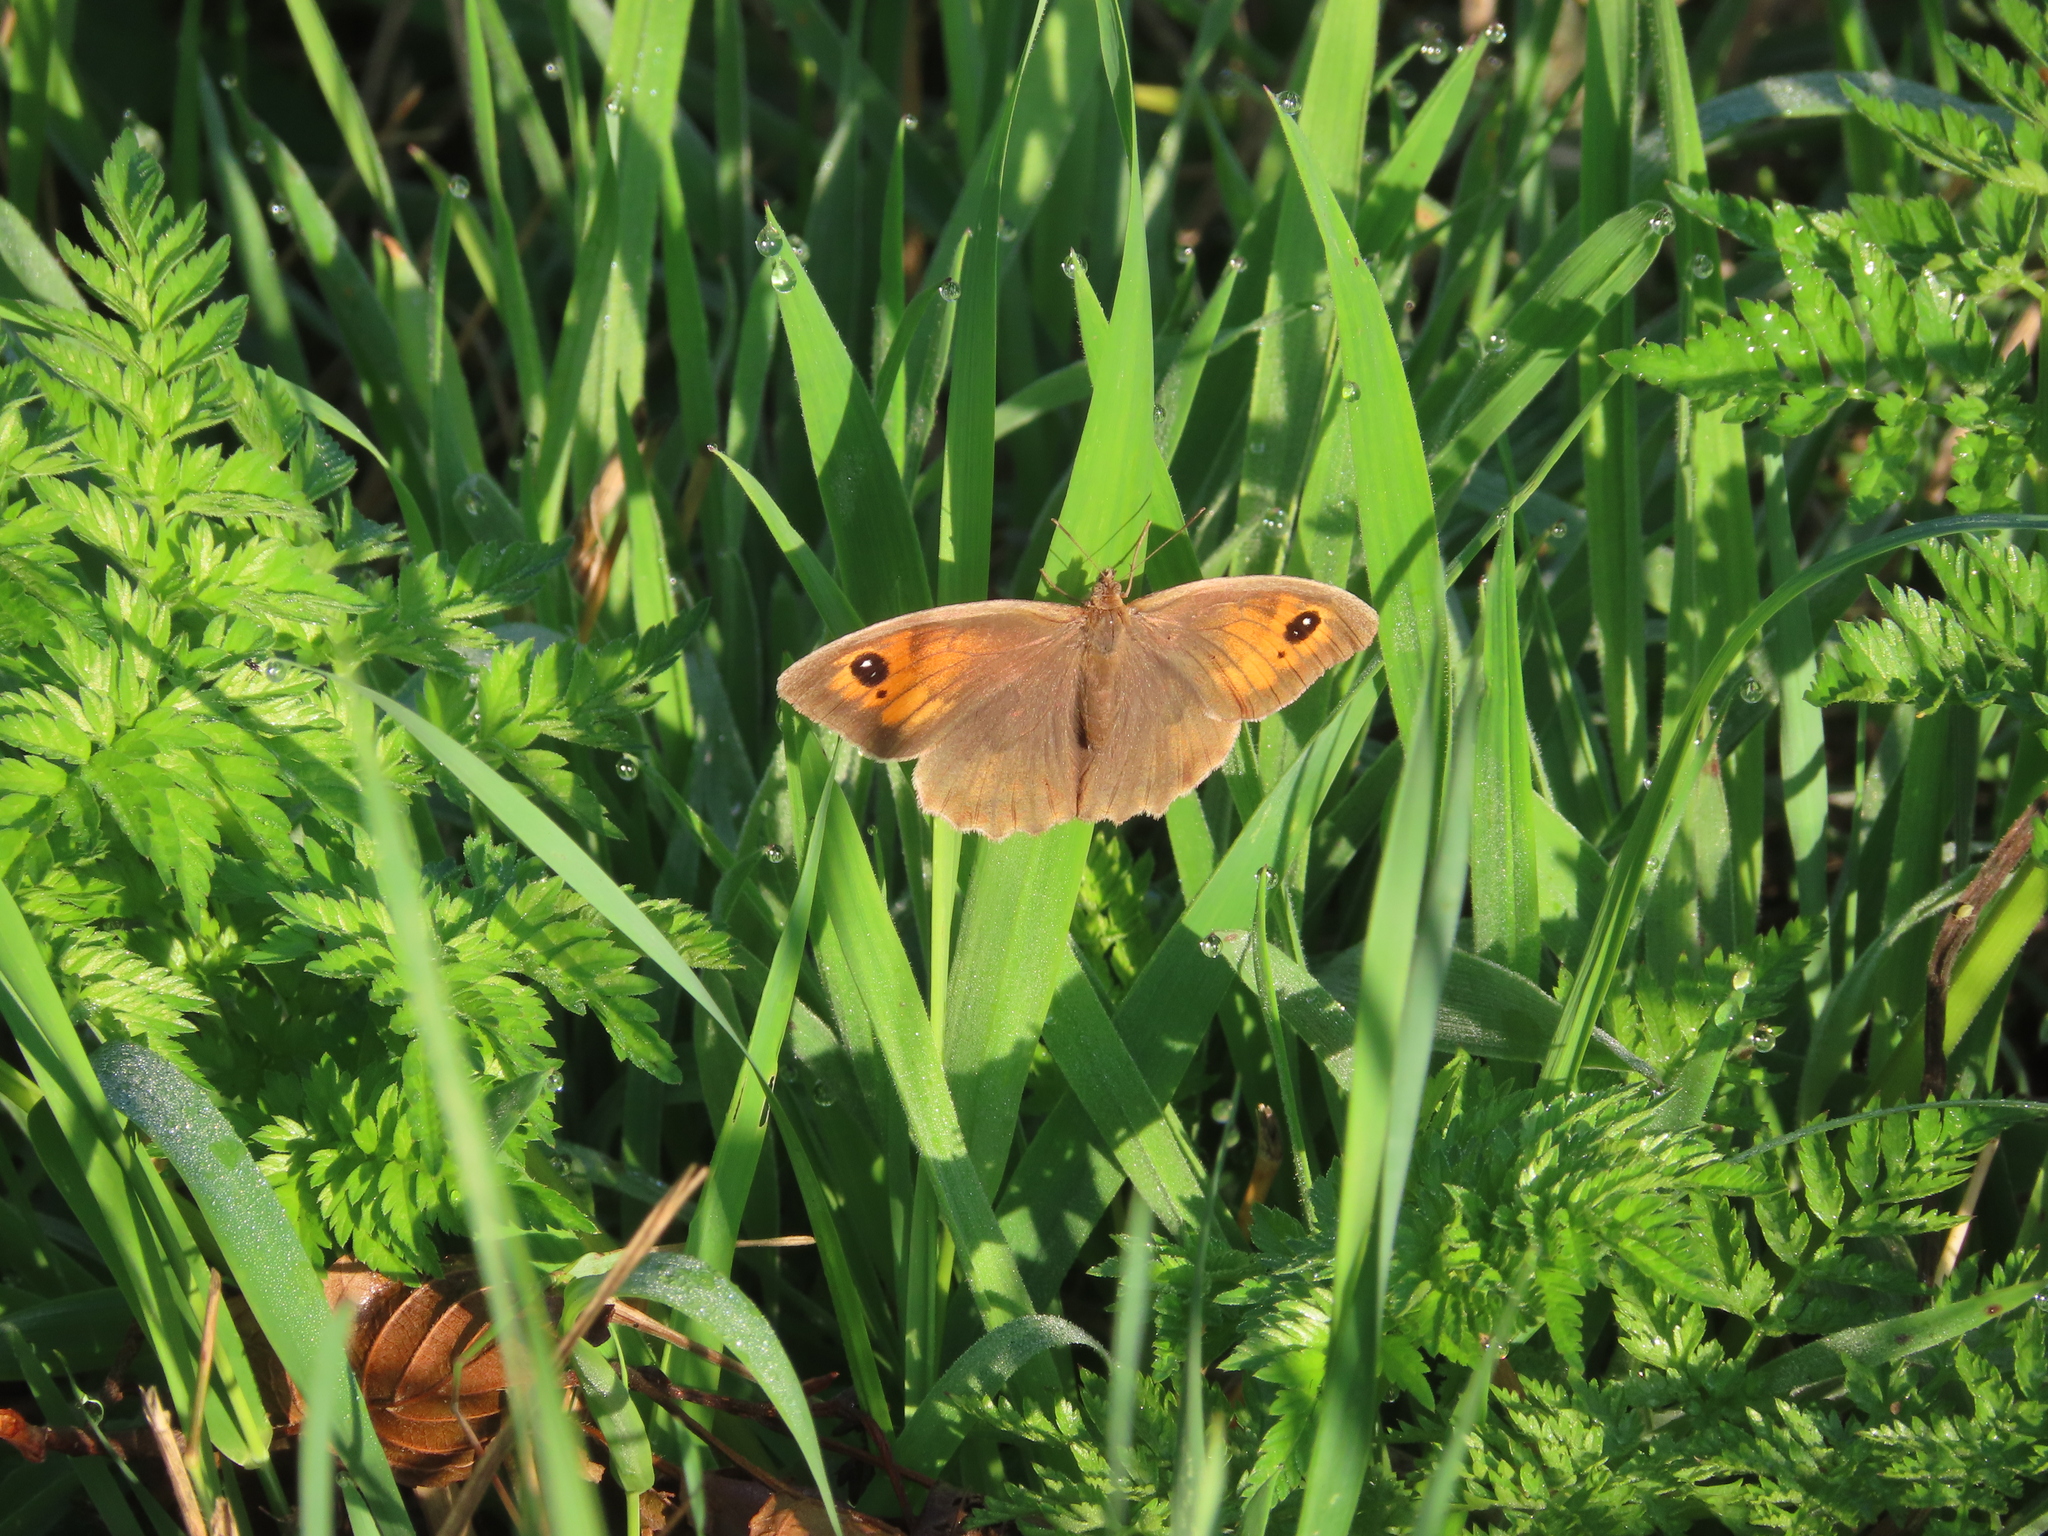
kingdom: Animalia
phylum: Arthropoda
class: Insecta
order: Lepidoptera
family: Nymphalidae
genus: Maniola
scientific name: Maniola jurtina
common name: Meadow brown
